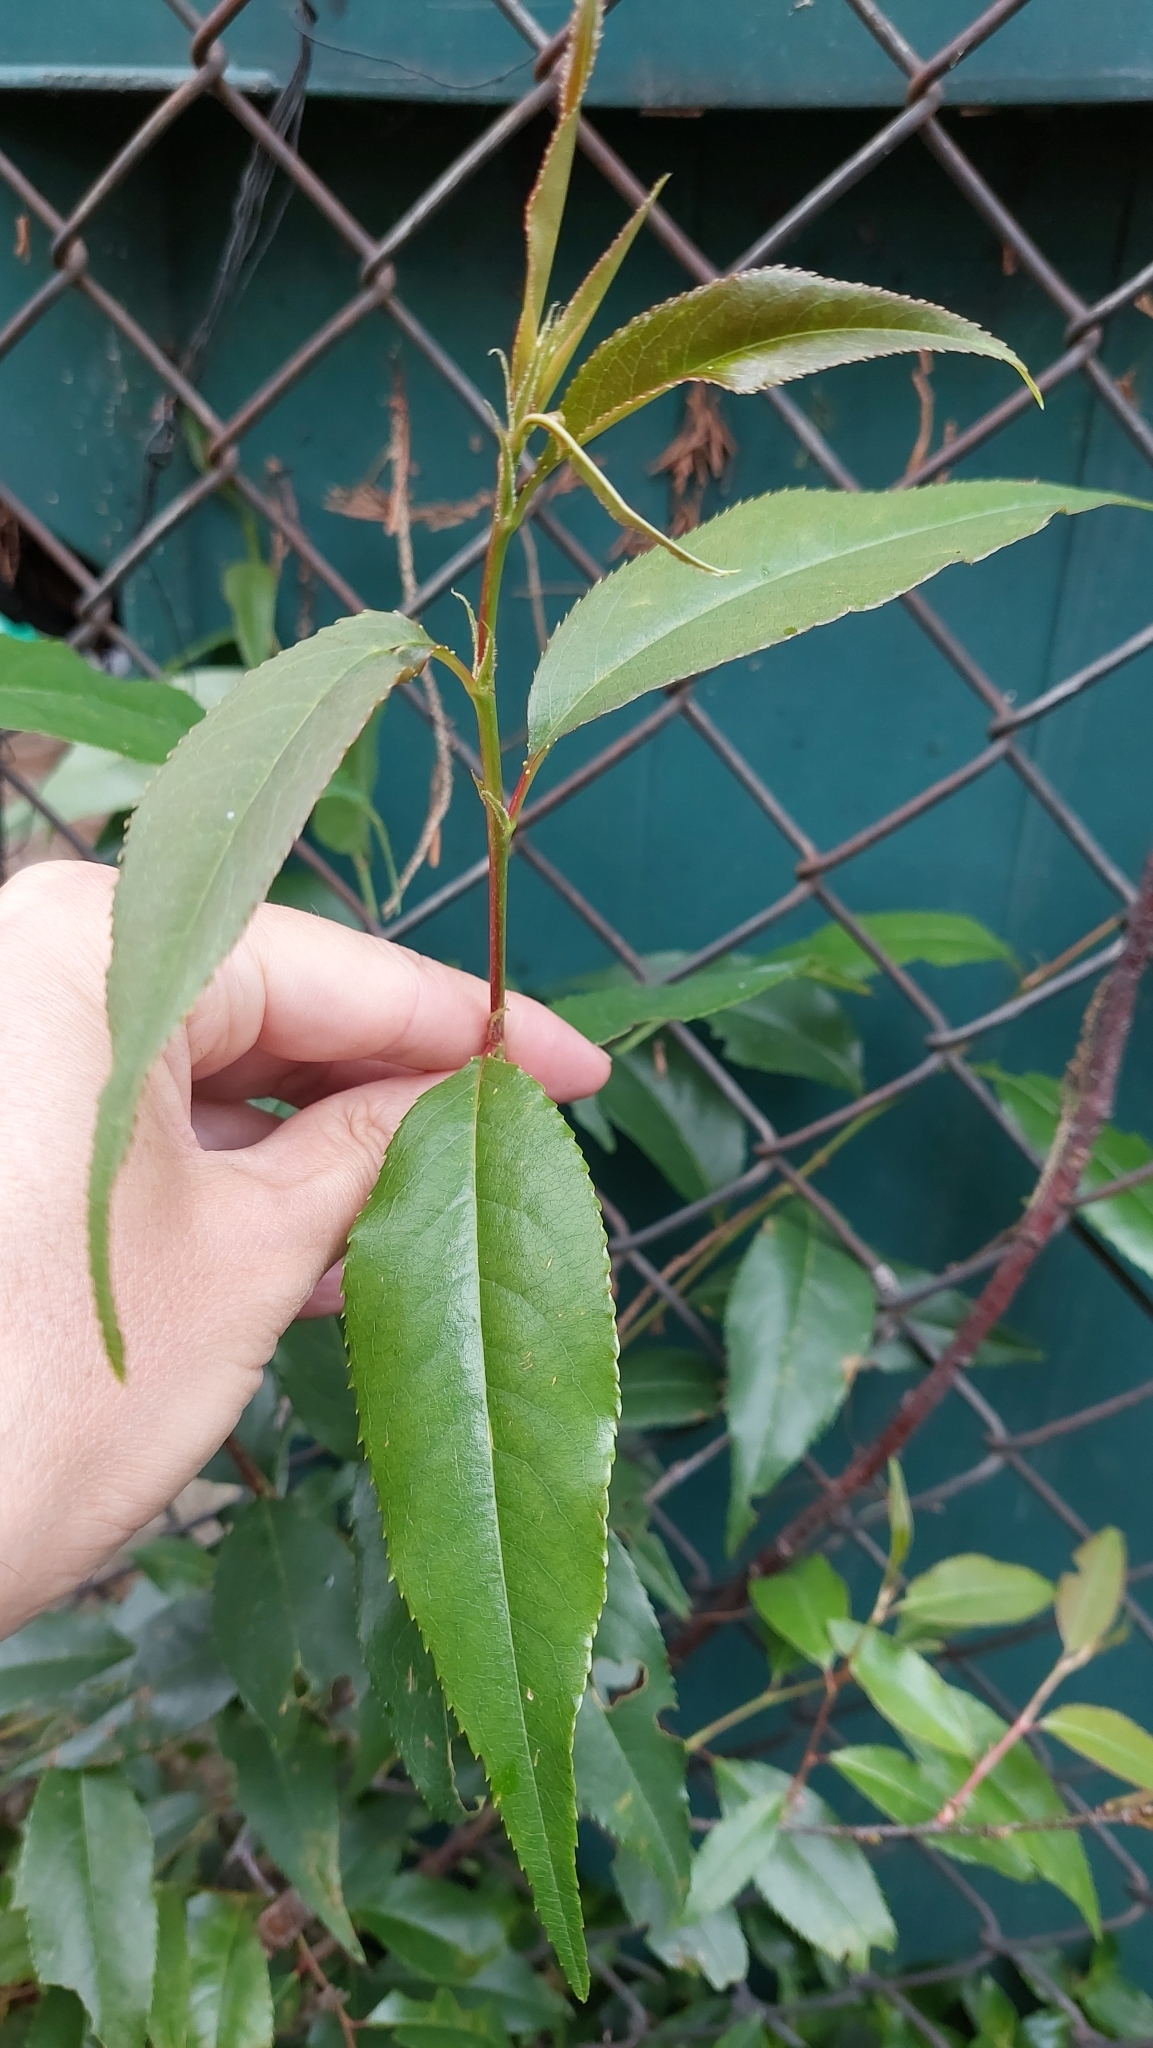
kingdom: Plantae
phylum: Tracheophyta
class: Magnoliopsida
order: Rosales
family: Rosaceae
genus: Prunus
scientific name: Prunus serotina
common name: Black cherry
